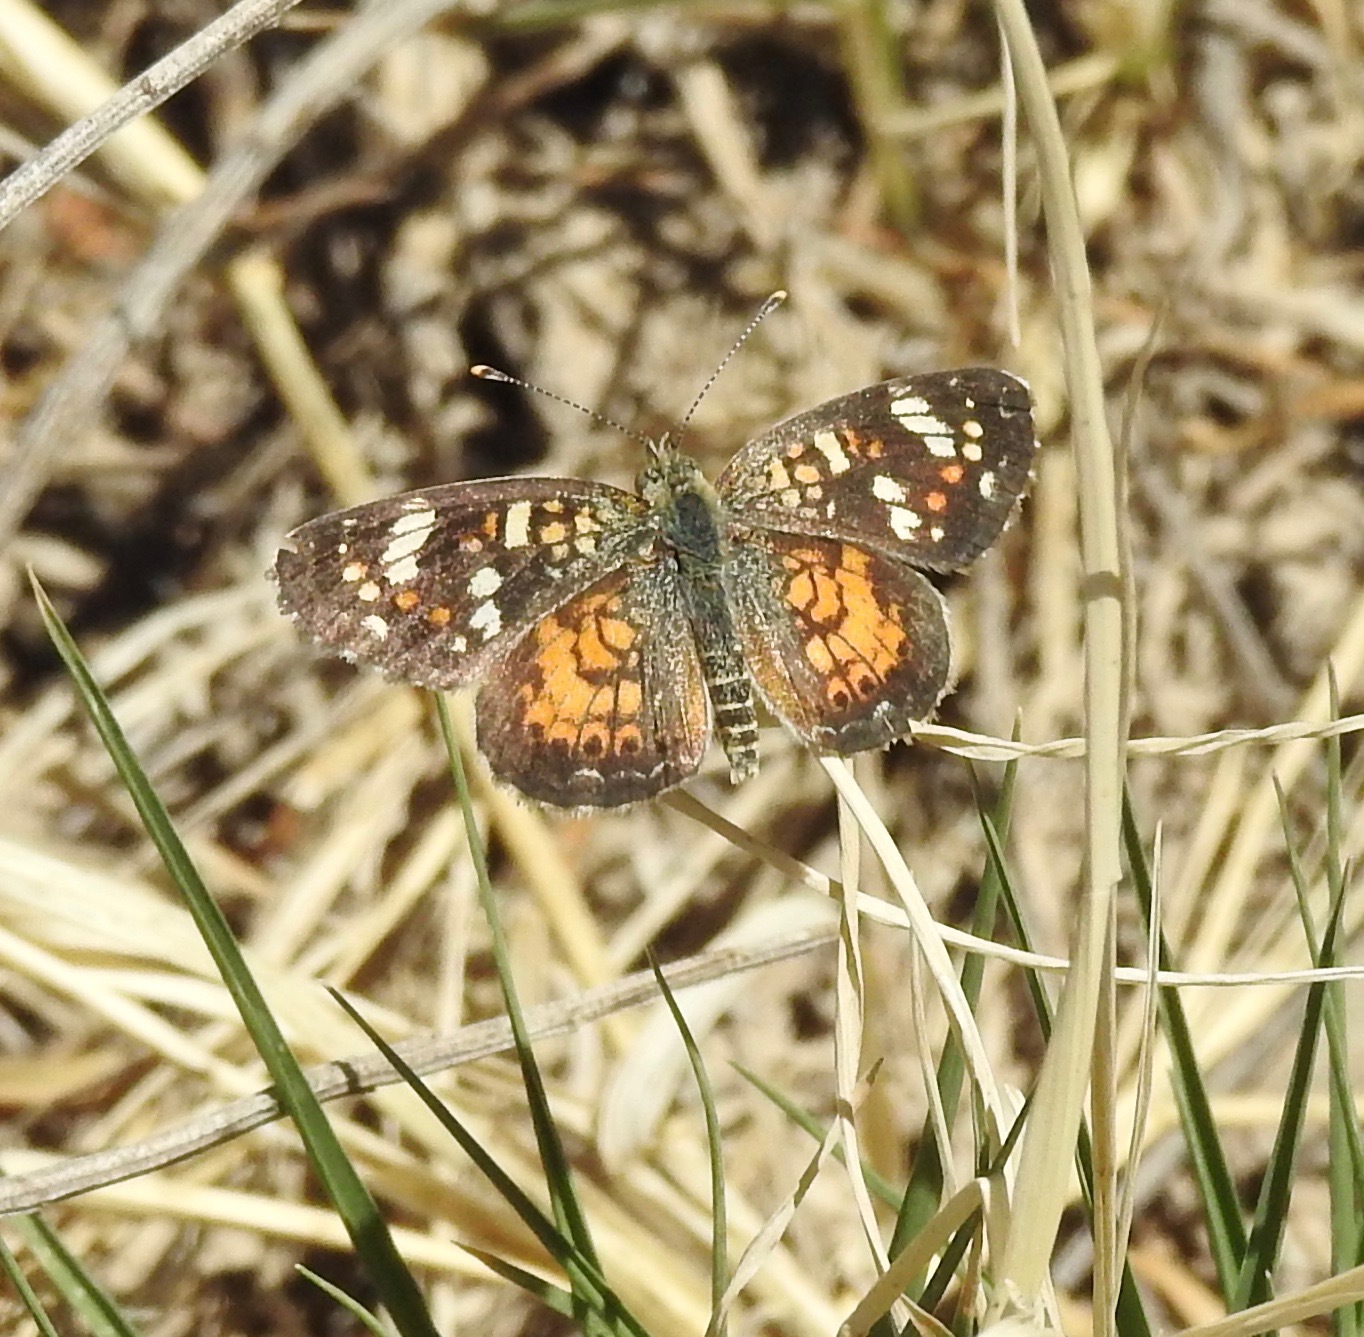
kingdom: Animalia
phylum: Arthropoda
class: Insecta
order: Lepidoptera
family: Nymphalidae
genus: Phyciodes
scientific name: Phyciodes picta
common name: Painted crescent
